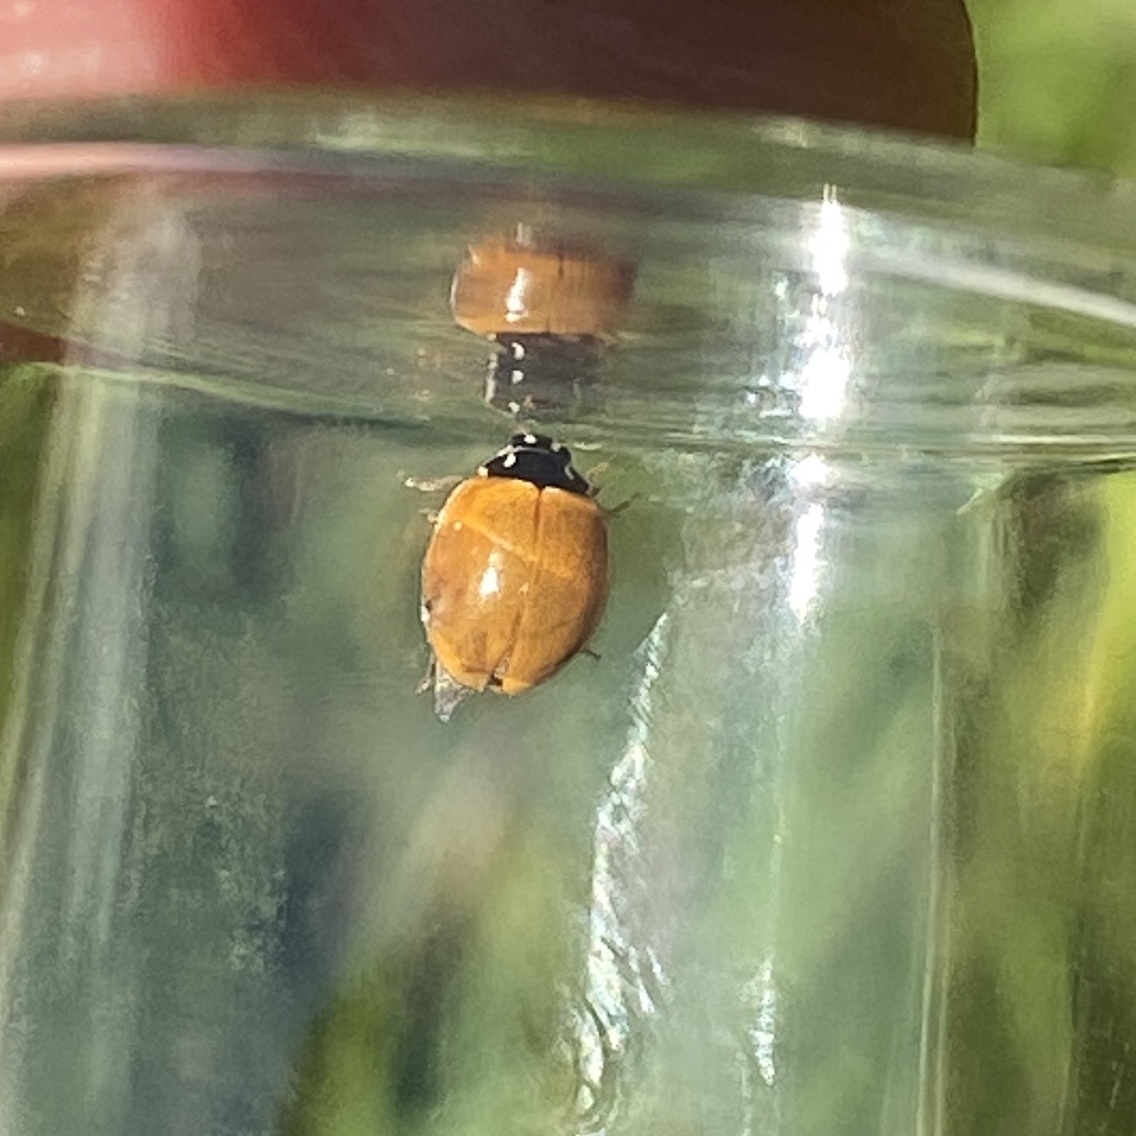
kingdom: Animalia
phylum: Arthropoda
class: Insecta
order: Coleoptera
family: Coccinellidae
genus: Cycloneda
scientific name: Cycloneda munda
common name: Polished lady beetle
